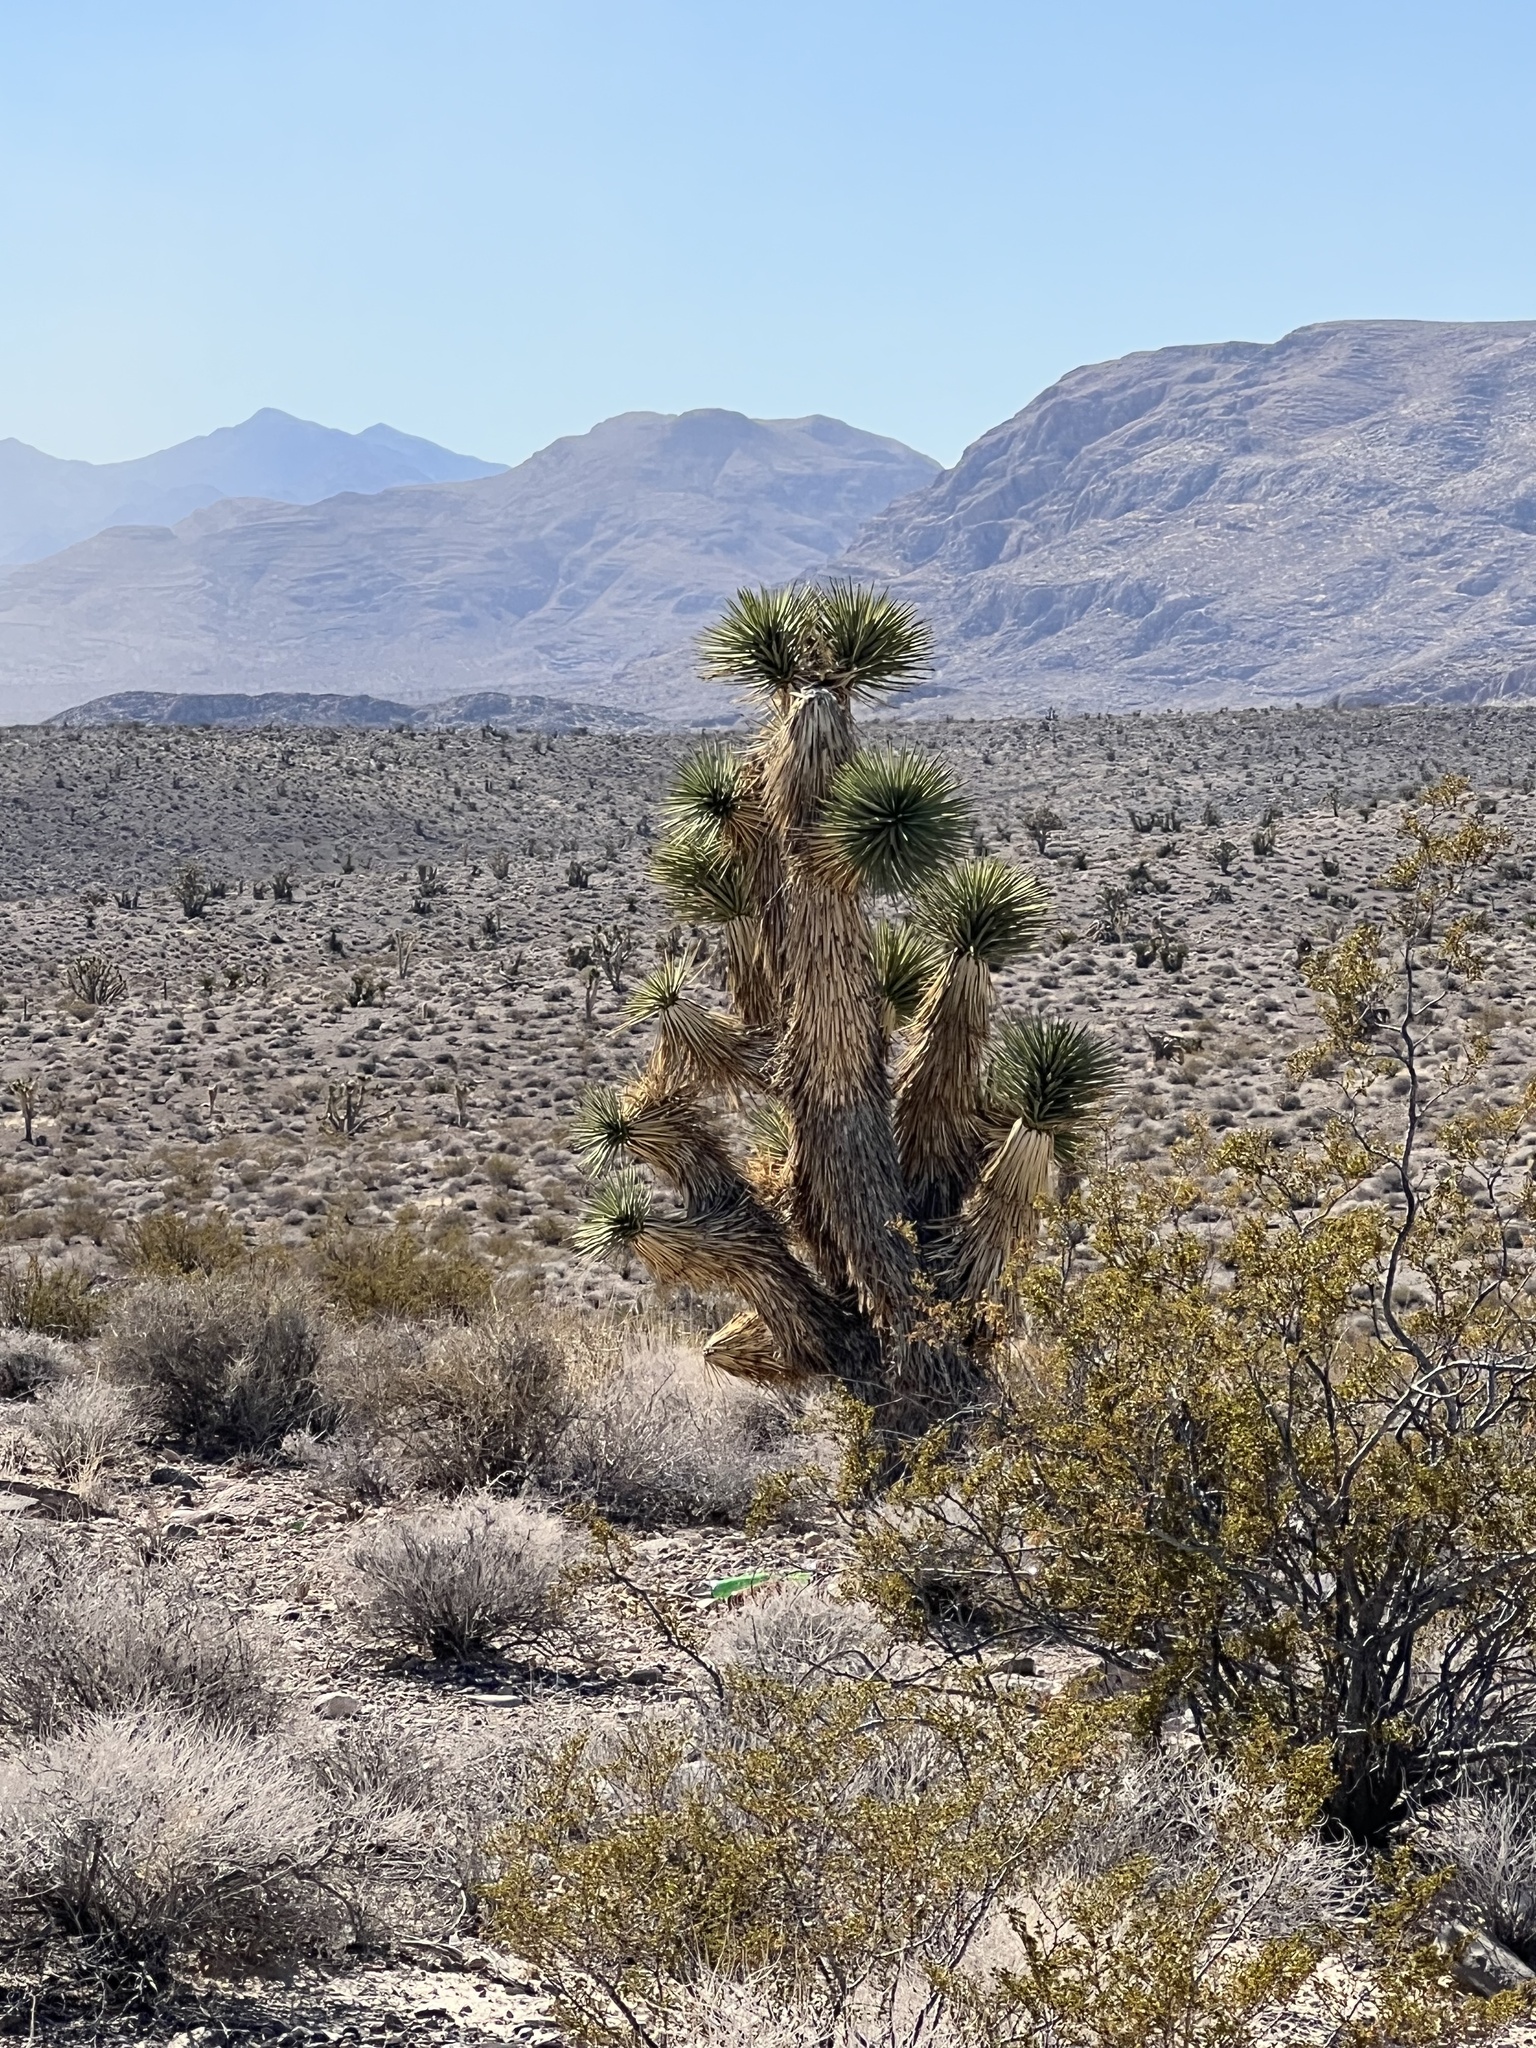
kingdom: Plantae
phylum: Tracheophyta
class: Liliopsida
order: Asparagales
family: Asparagaceae
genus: Yucca
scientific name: Yucca brevifolia
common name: Joshua tree
